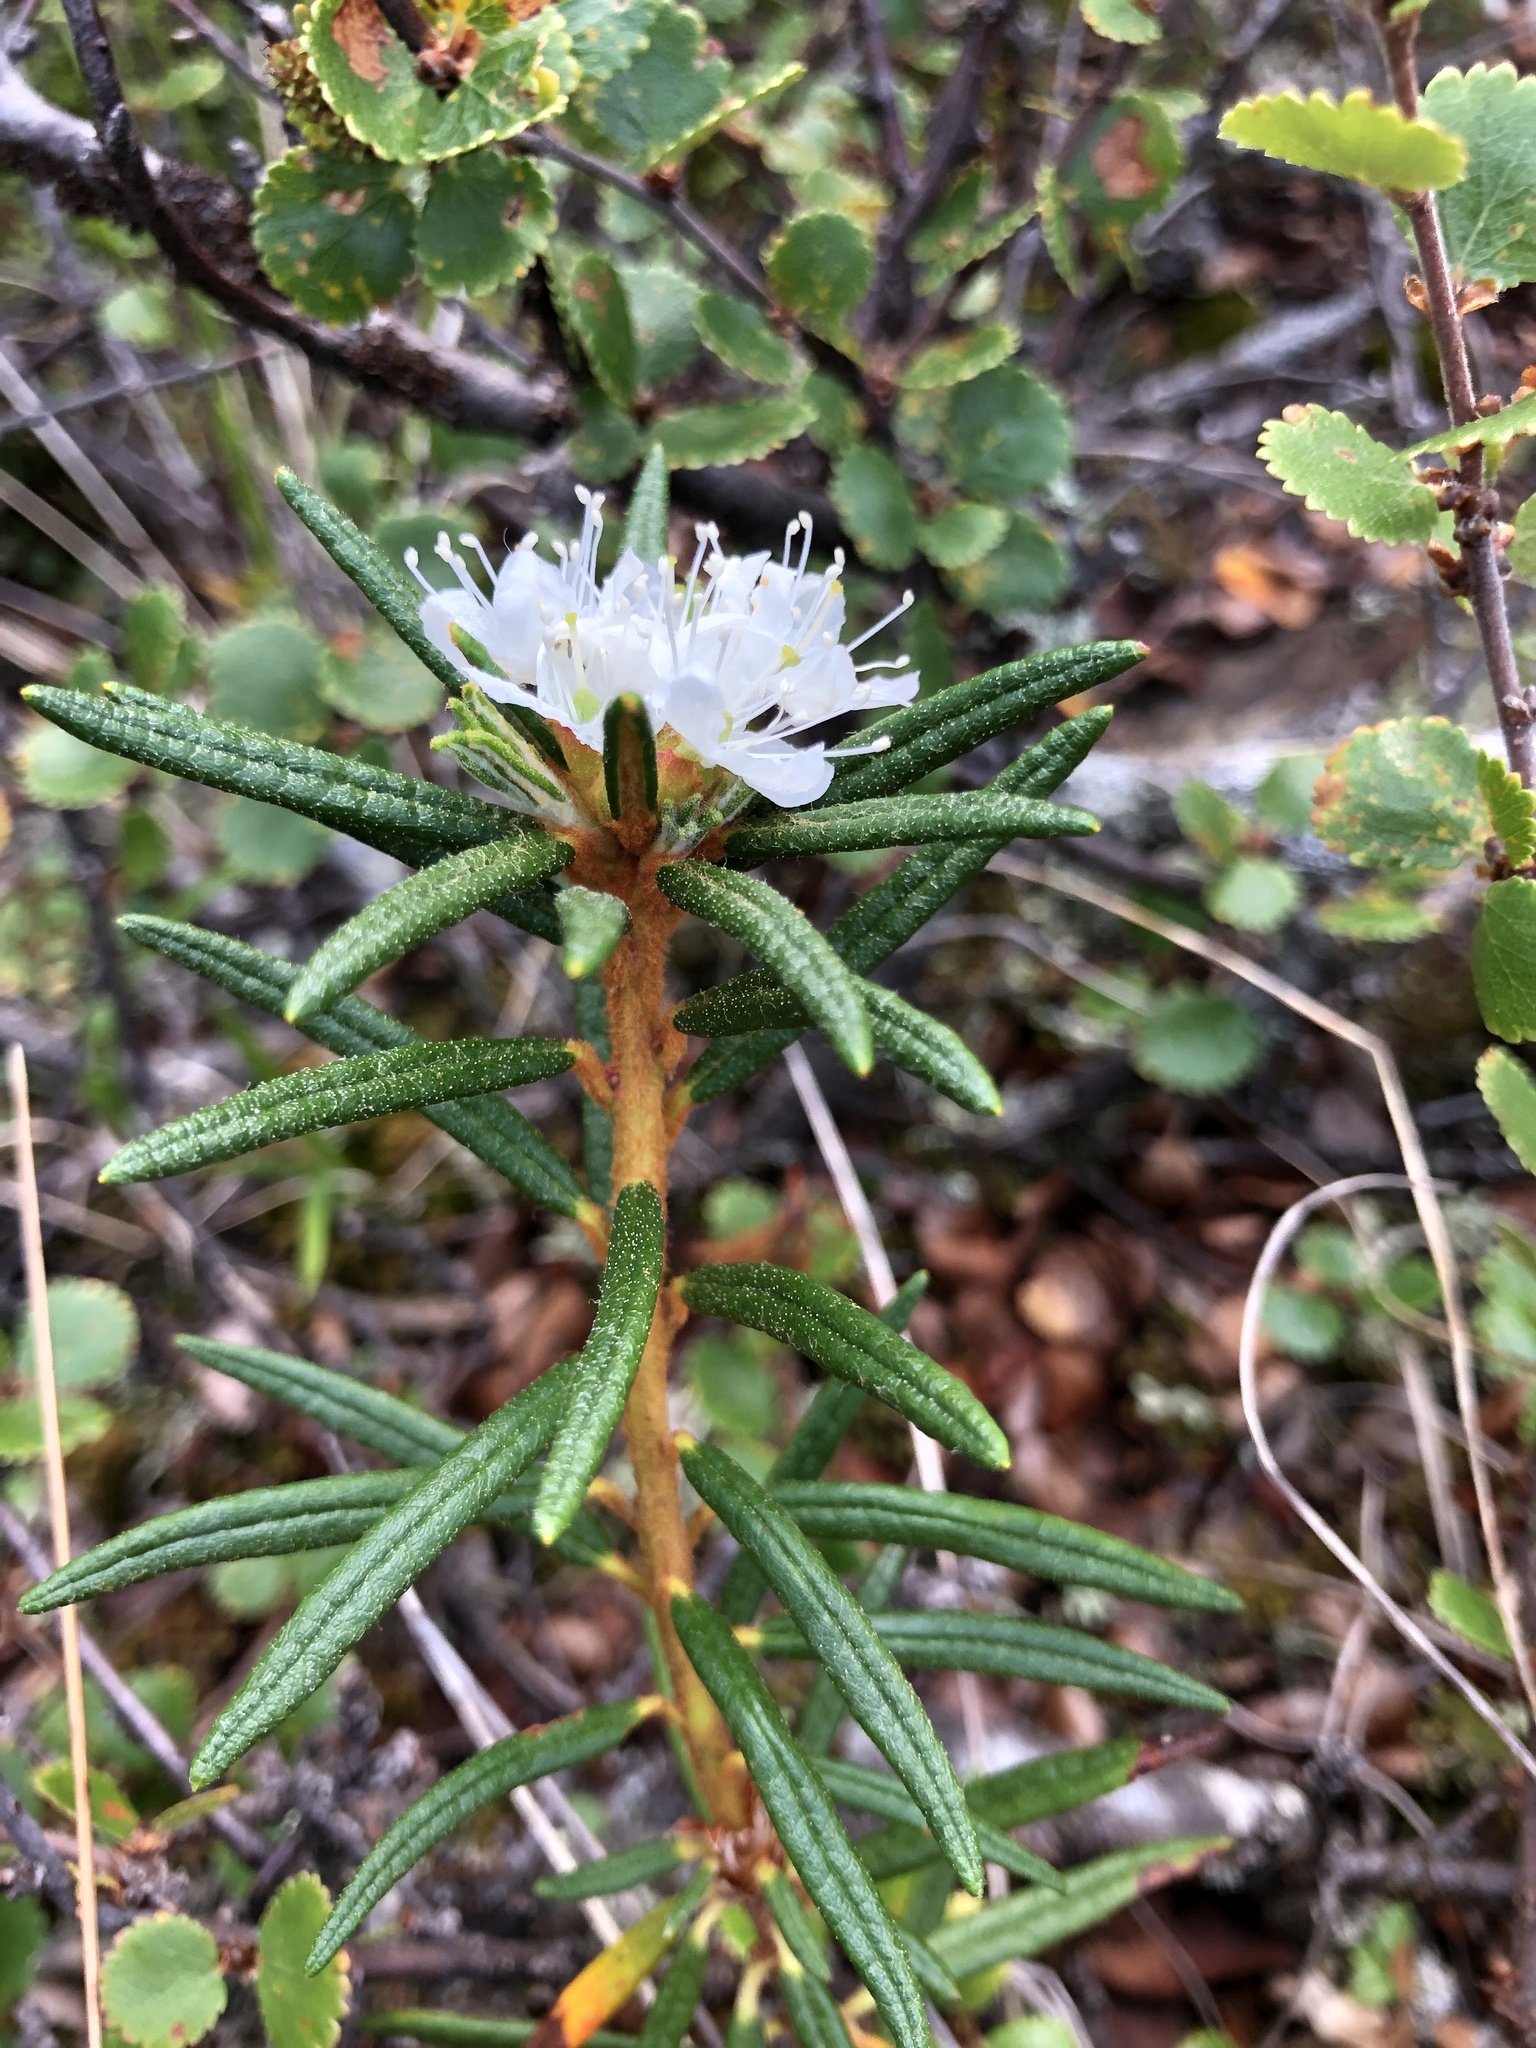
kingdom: Plantae
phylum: Tracheophyta
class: Magnoliopsida
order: Ericales
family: Ericaceae
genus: Rhododendron
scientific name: Rhododendron tomentosum
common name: Marsh labrador tea
